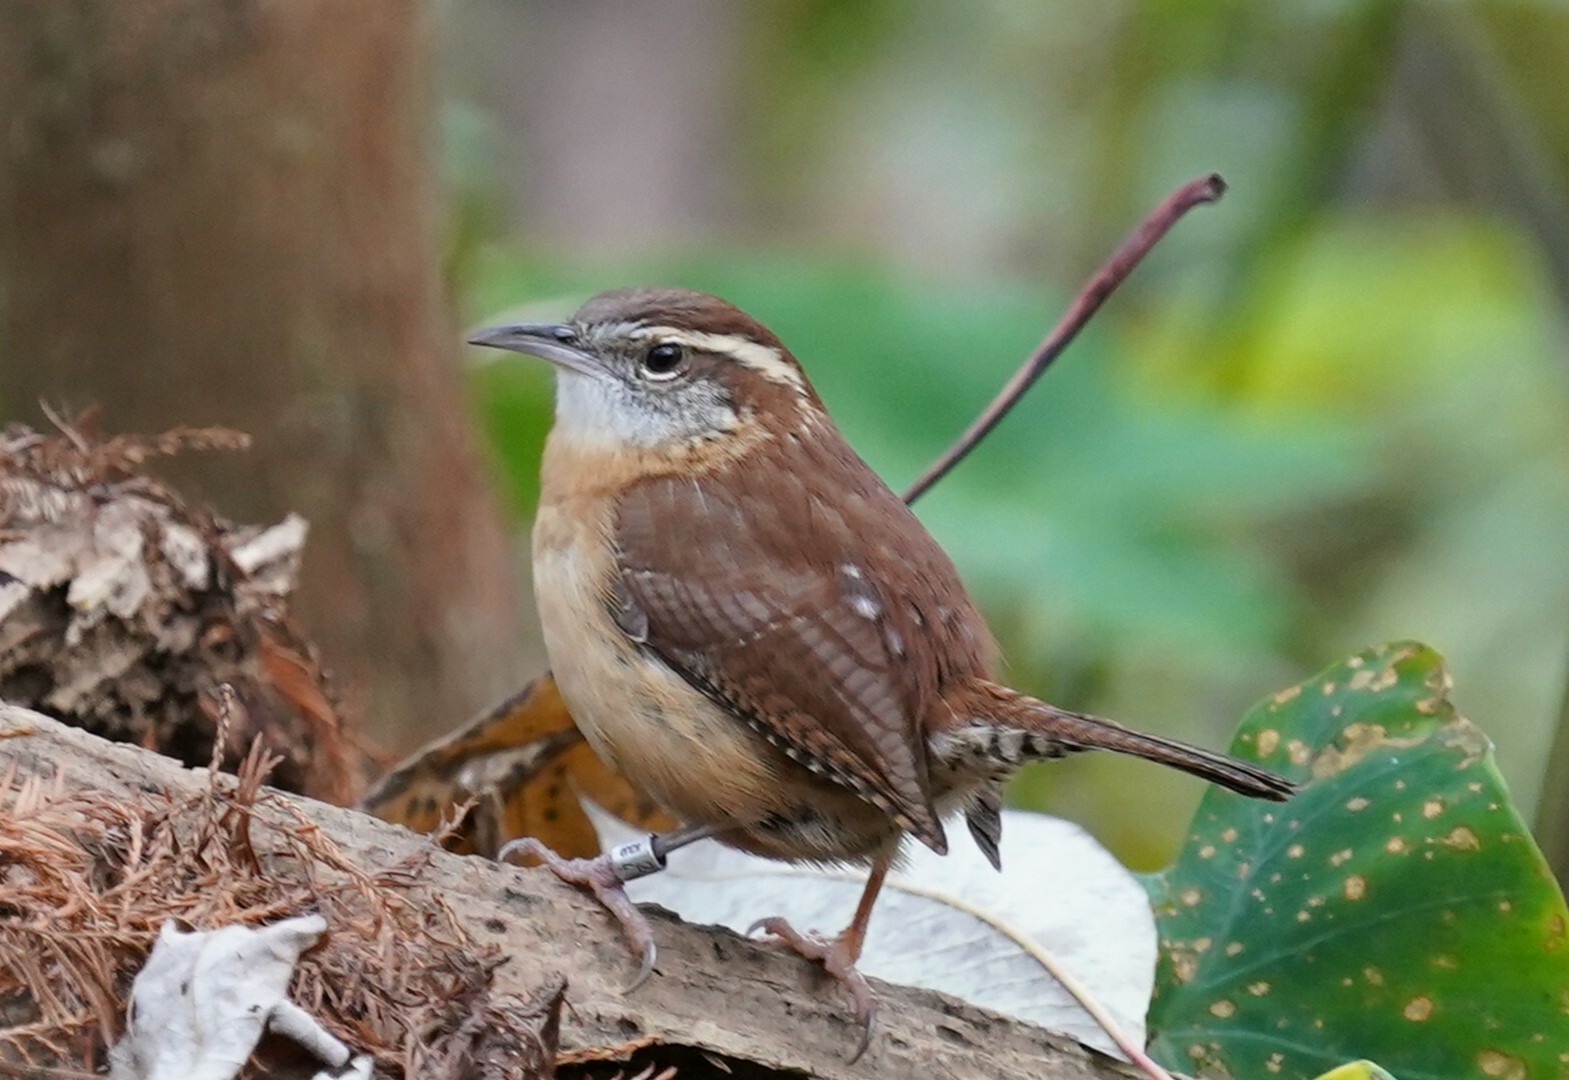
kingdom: Animalia
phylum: Chordata
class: Aves
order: Passeriformes
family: Troglodytidae
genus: Thryothorus
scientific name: Thryothorus ludovicianus
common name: Carolina wren
